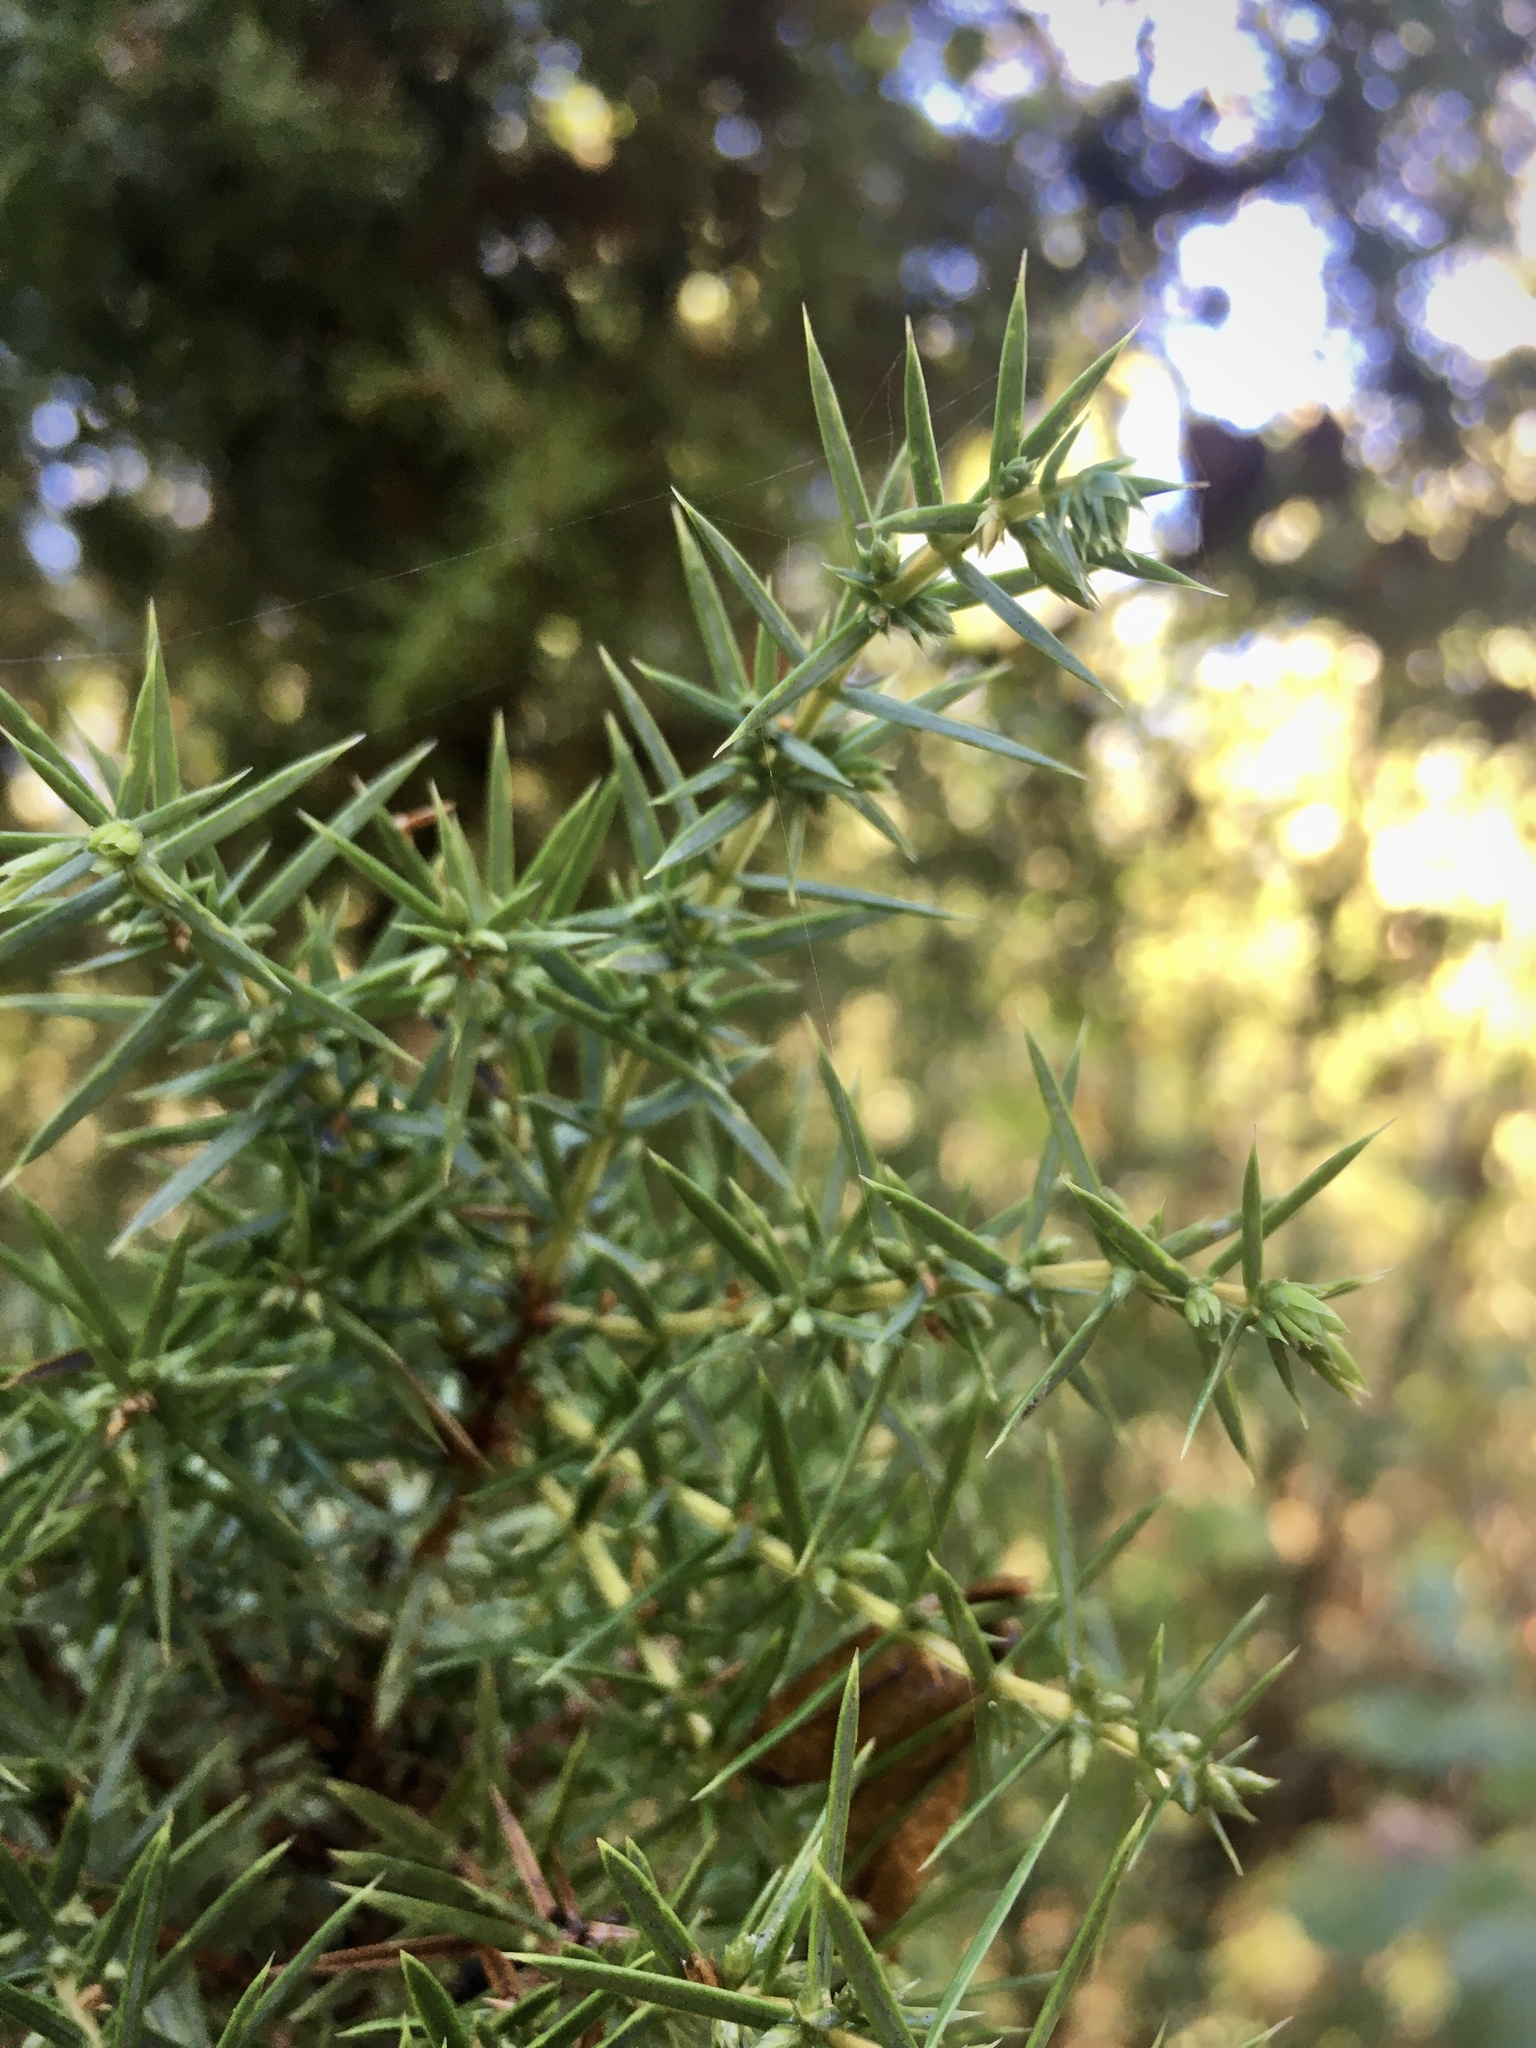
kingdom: Plantae
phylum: Tracheophyta
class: Pinopsida
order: Pinales
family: Cupressaceae
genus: Juniperus
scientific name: Juniperus communis
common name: Common juniper
